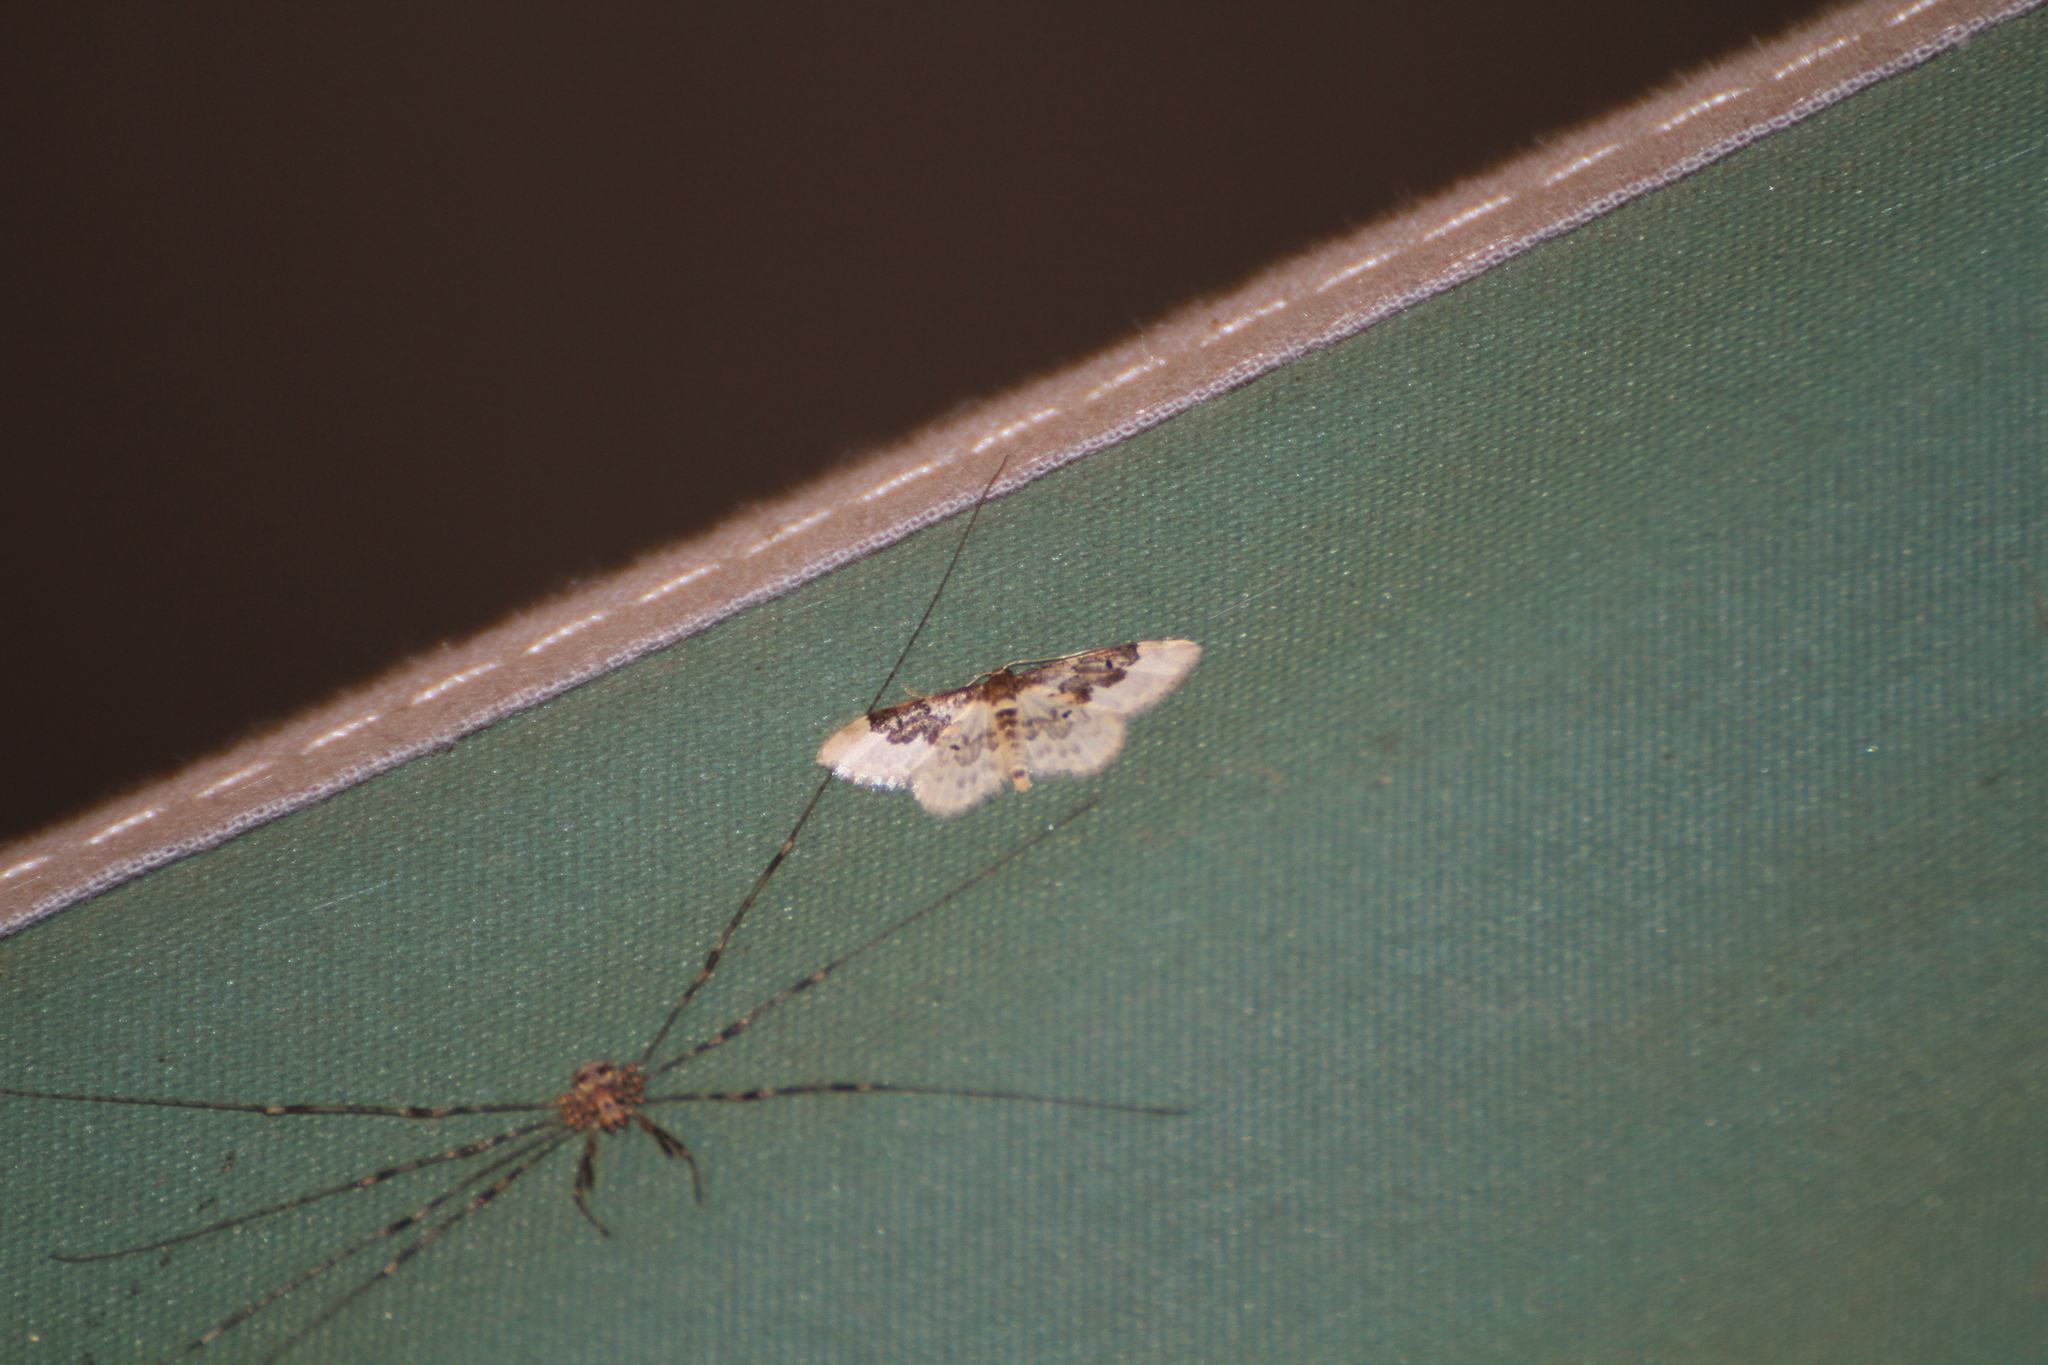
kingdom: Animalia
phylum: Arthropoda
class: Insecta
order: Lepidoptera
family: Geometridae
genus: Idaea
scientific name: Idaea rusticata
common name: Least carpet
